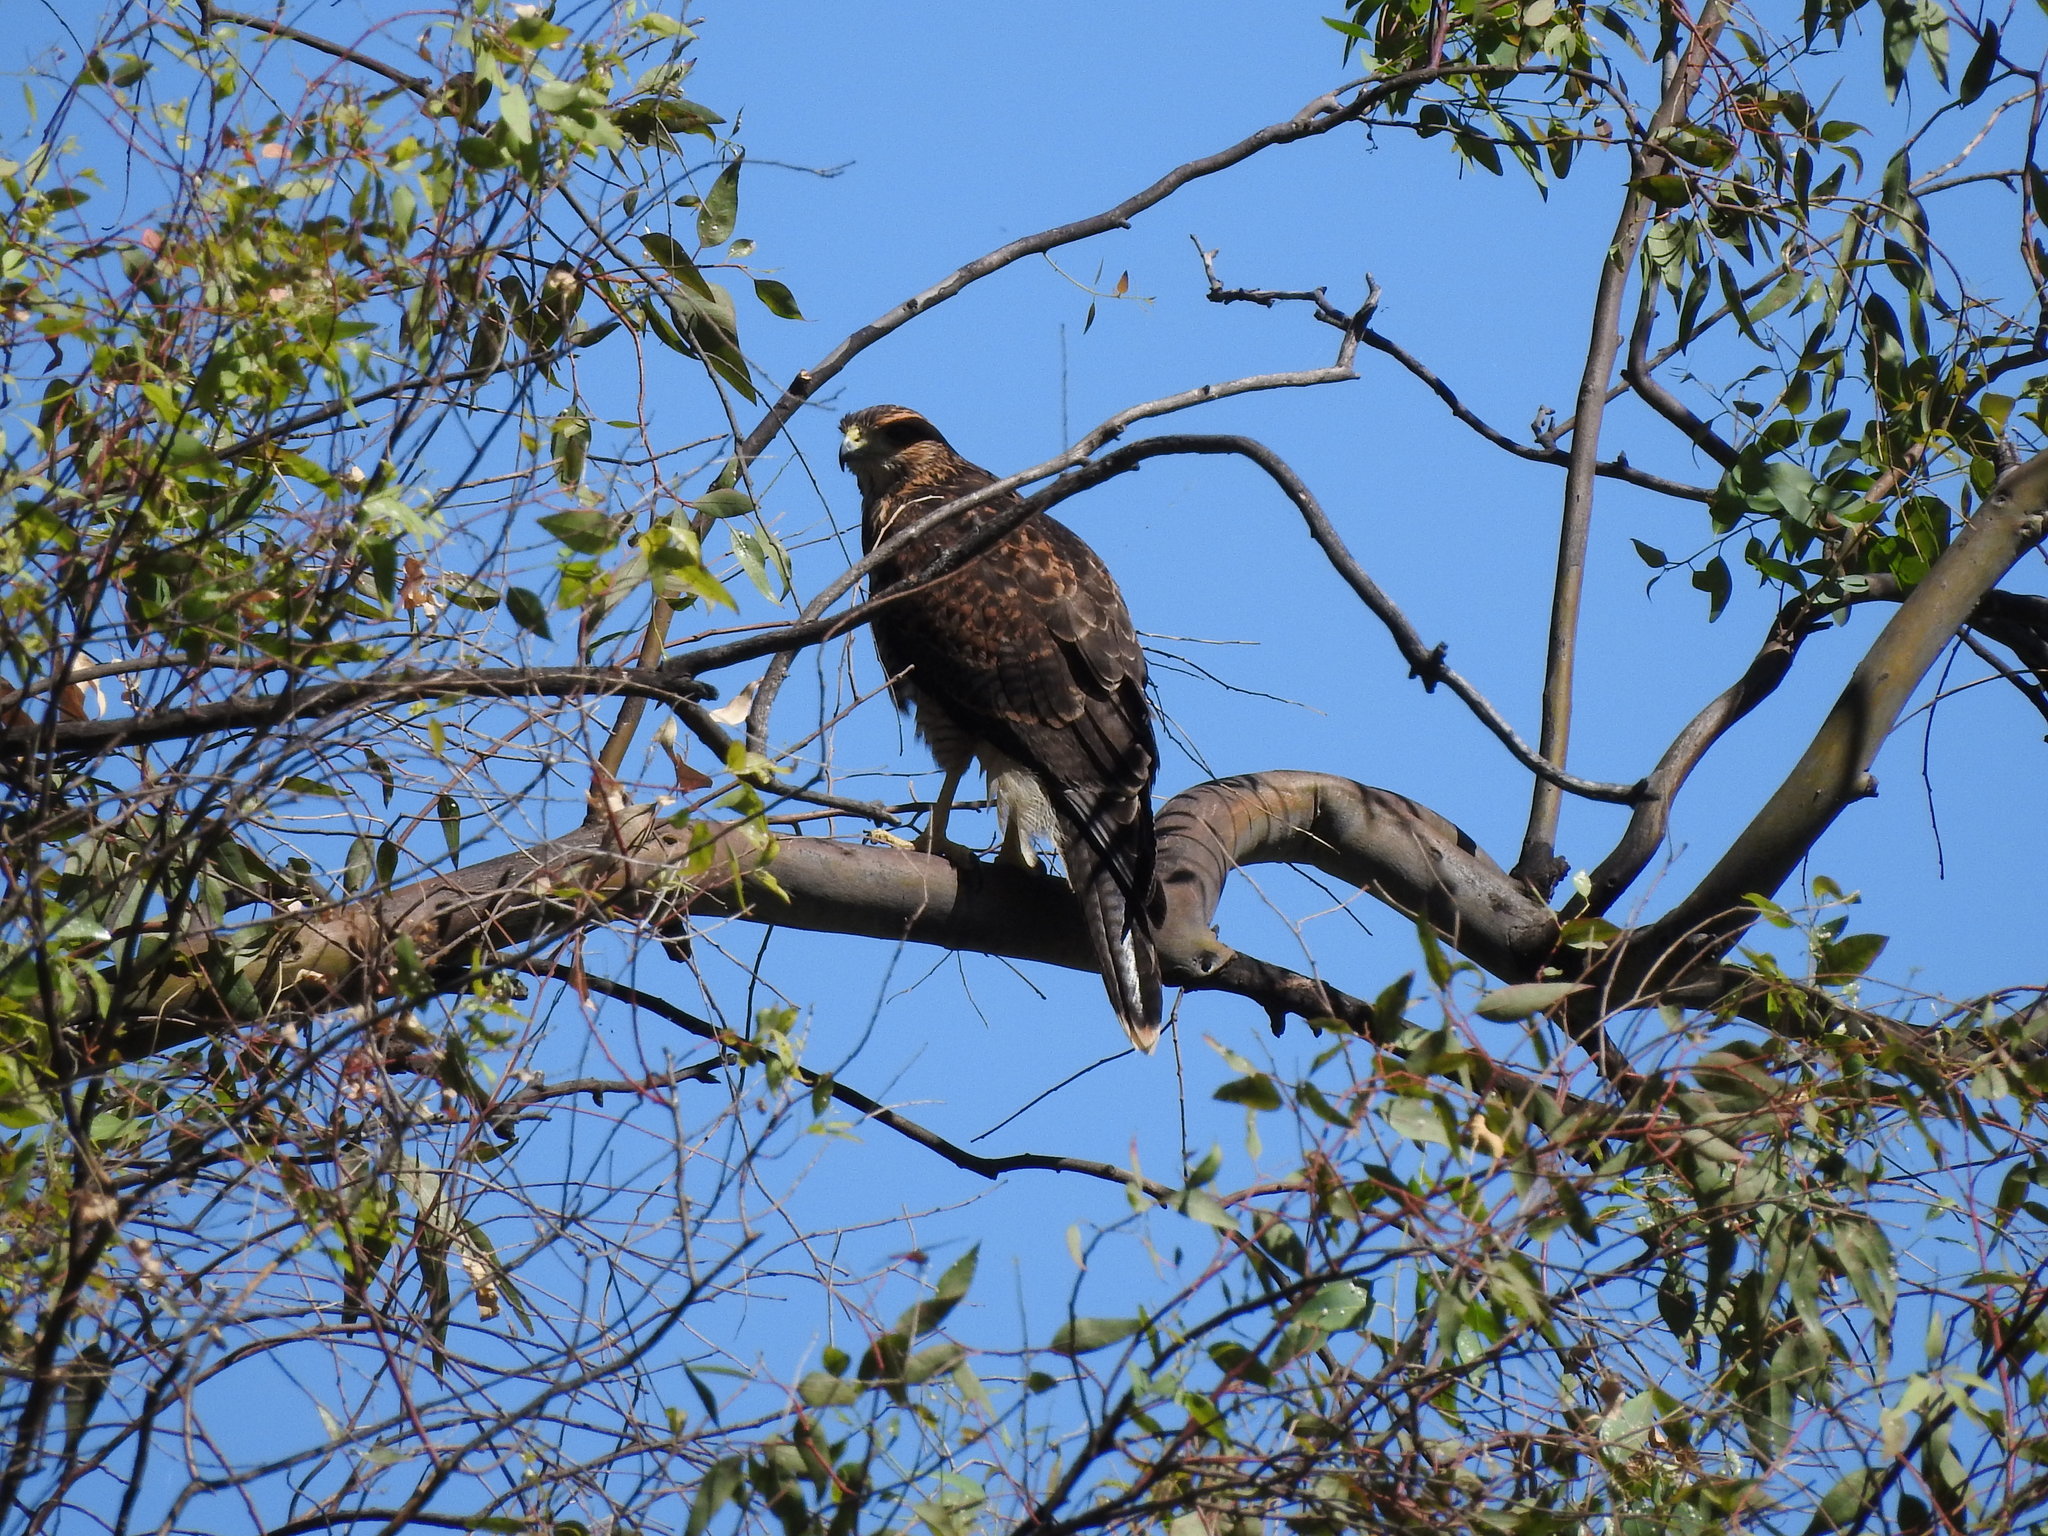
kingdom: Animalia
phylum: Chordata
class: Aves
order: Accipitriformes
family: Accipitridae
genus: Parabuteo
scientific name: Parabuteo unicinctus
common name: Harris's hawk
